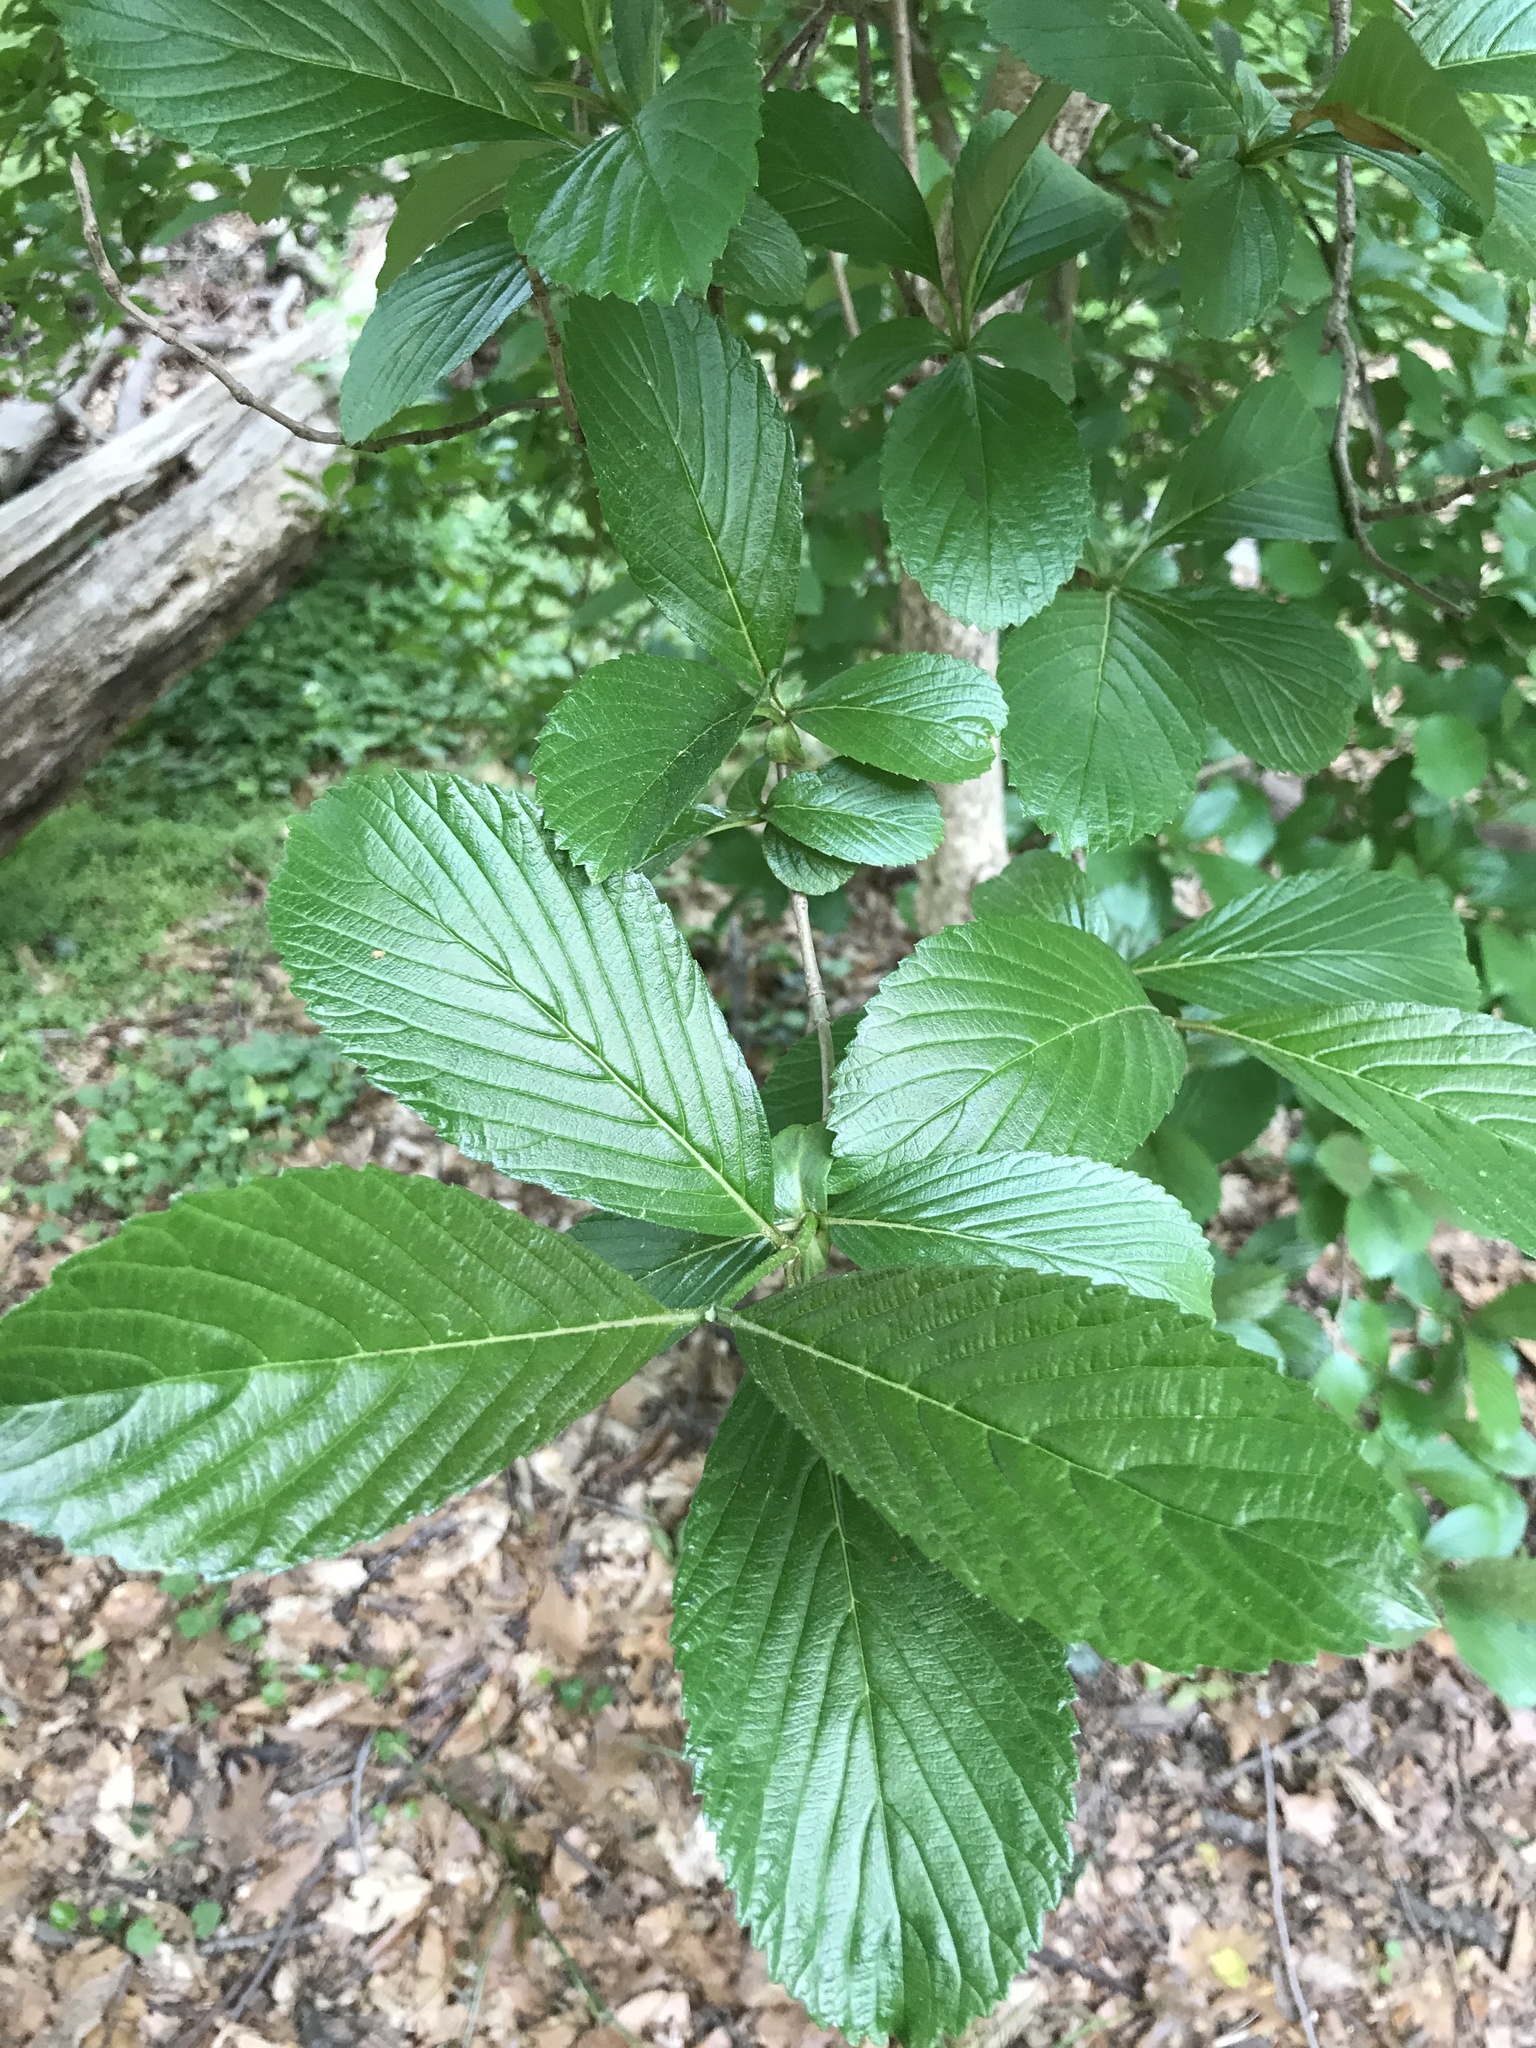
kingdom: Plantae
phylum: Tracheophyta
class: Magnoliopsida
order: Dipsacales
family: Viburnaceae
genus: Viburnum
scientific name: Viburnum sieboldii
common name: Siebold's arrowwood
